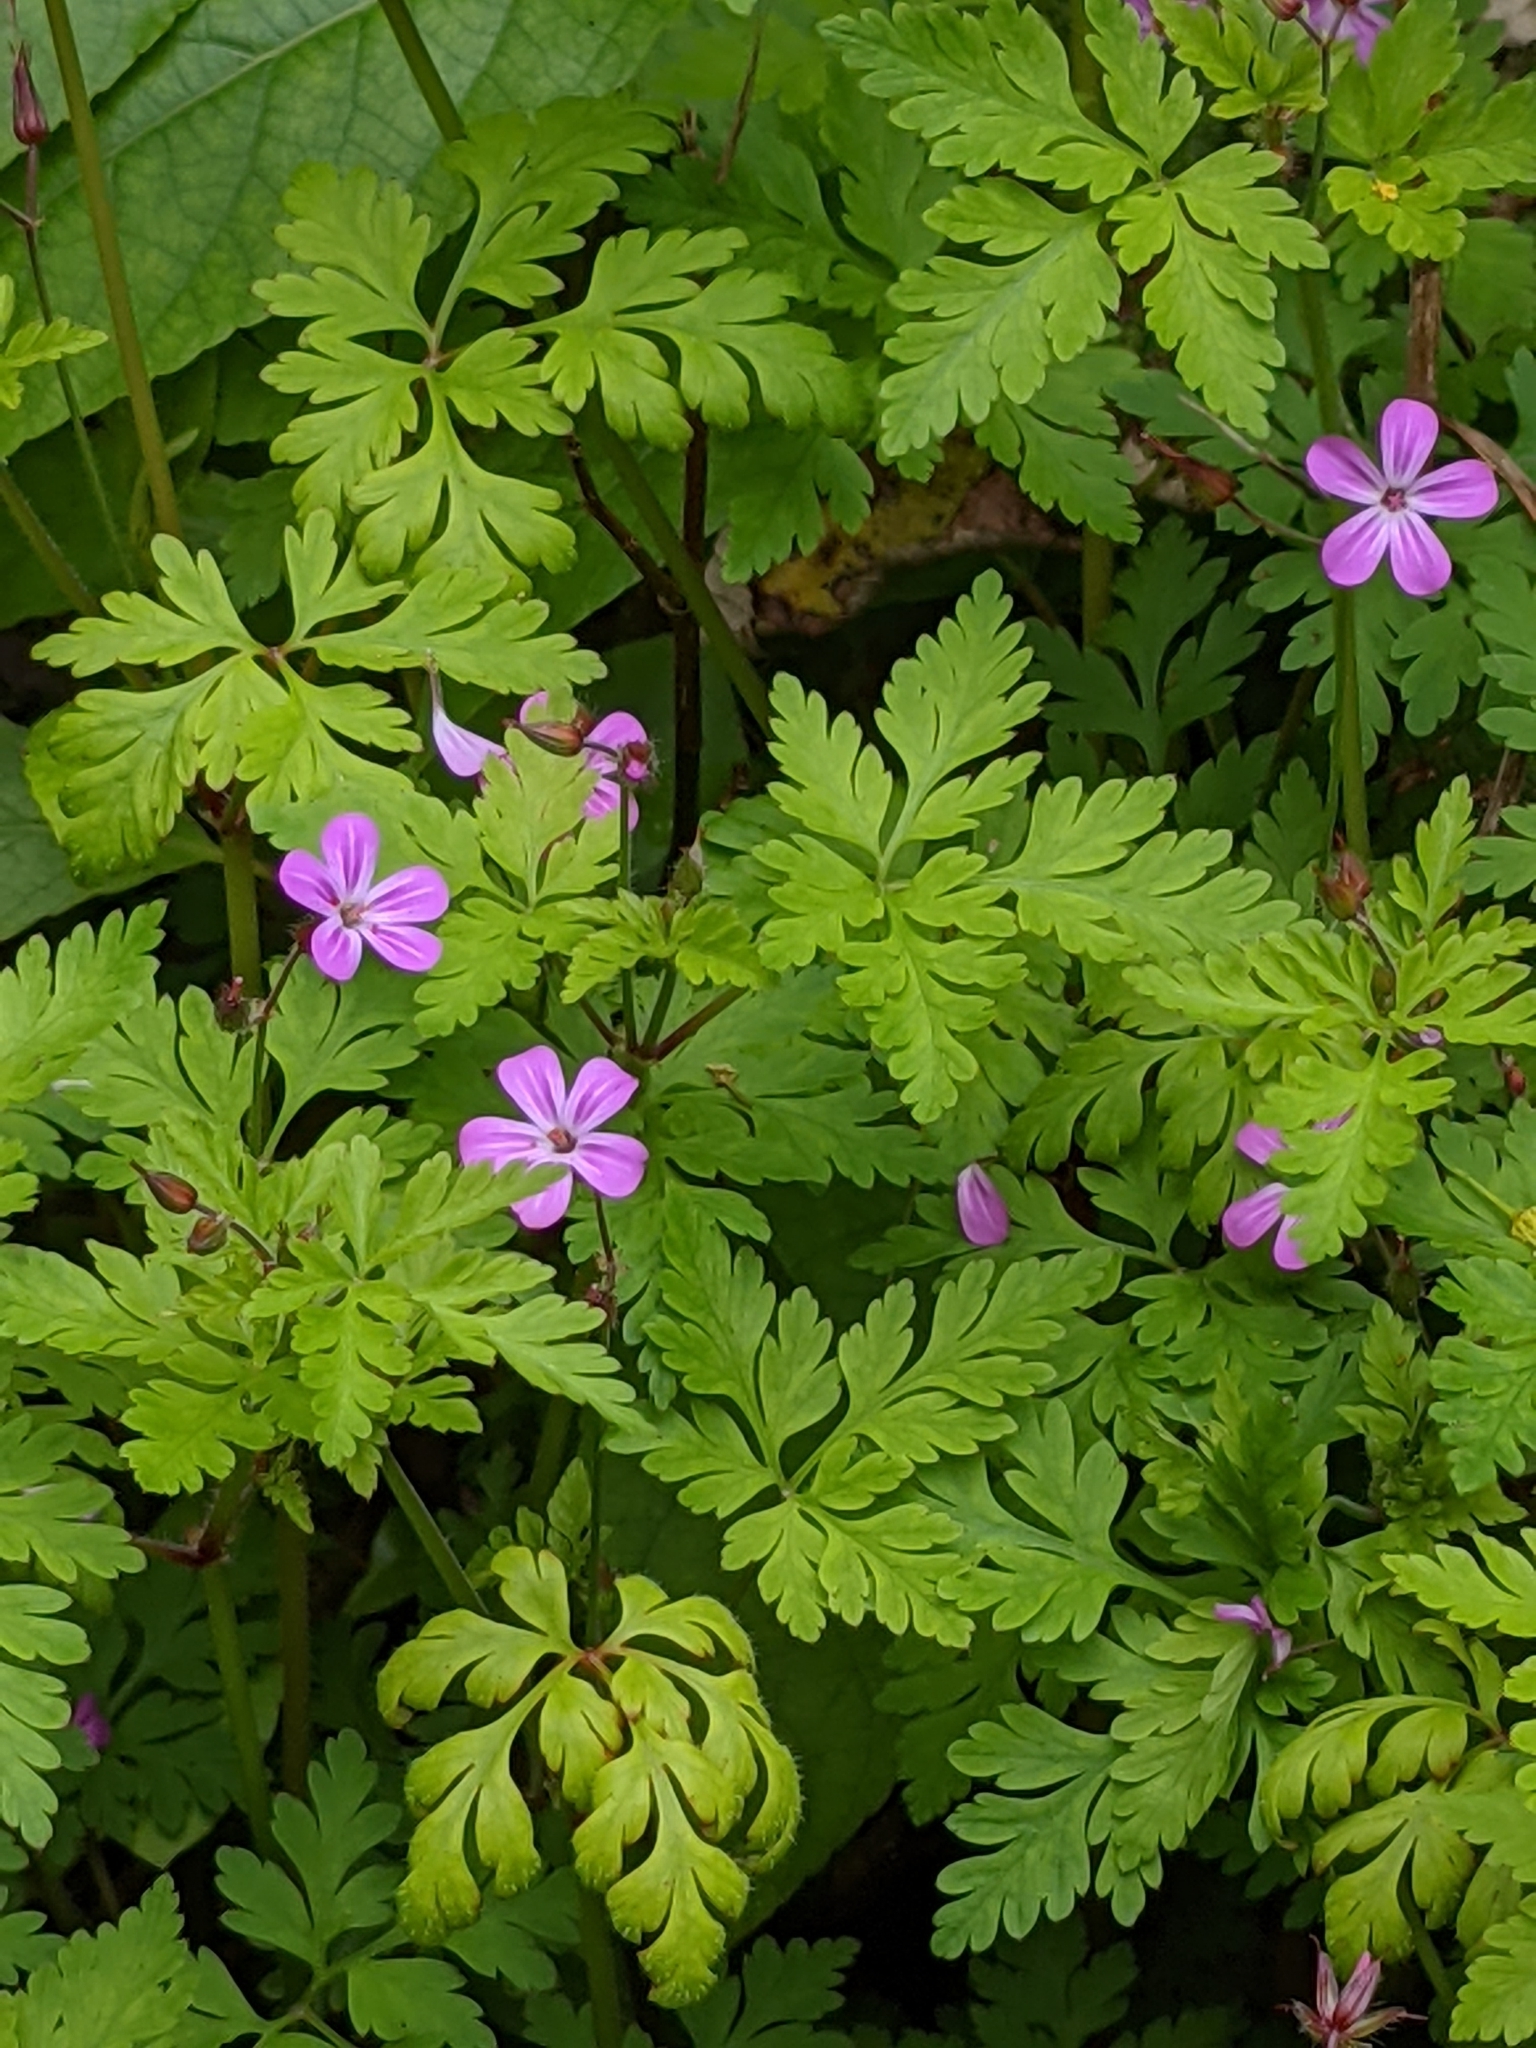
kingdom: Plantae
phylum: Tracheophyta
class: Magnoliopsida
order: Geraniales
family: Geraniaceae
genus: Geranium
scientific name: Geranium robertianum
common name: Herb-robert
